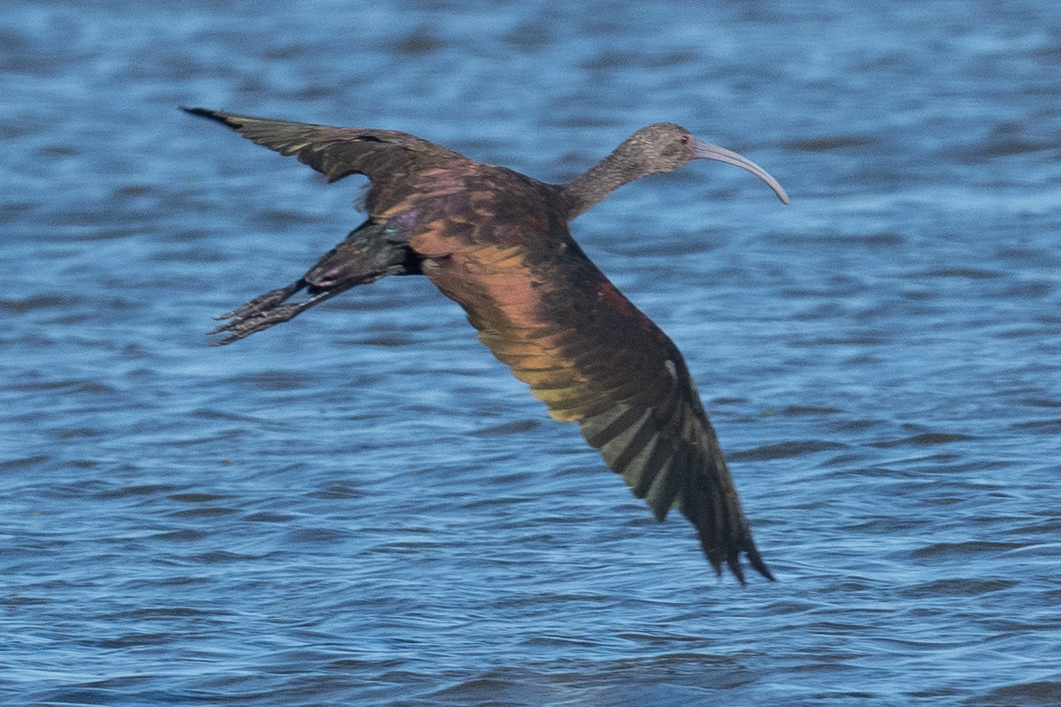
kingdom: Animalia
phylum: Chordata
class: Aves
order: Pelecaniformes
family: Threskiornithidae
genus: Plegadis
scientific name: Plegadis chihi
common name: White-faced ibis
